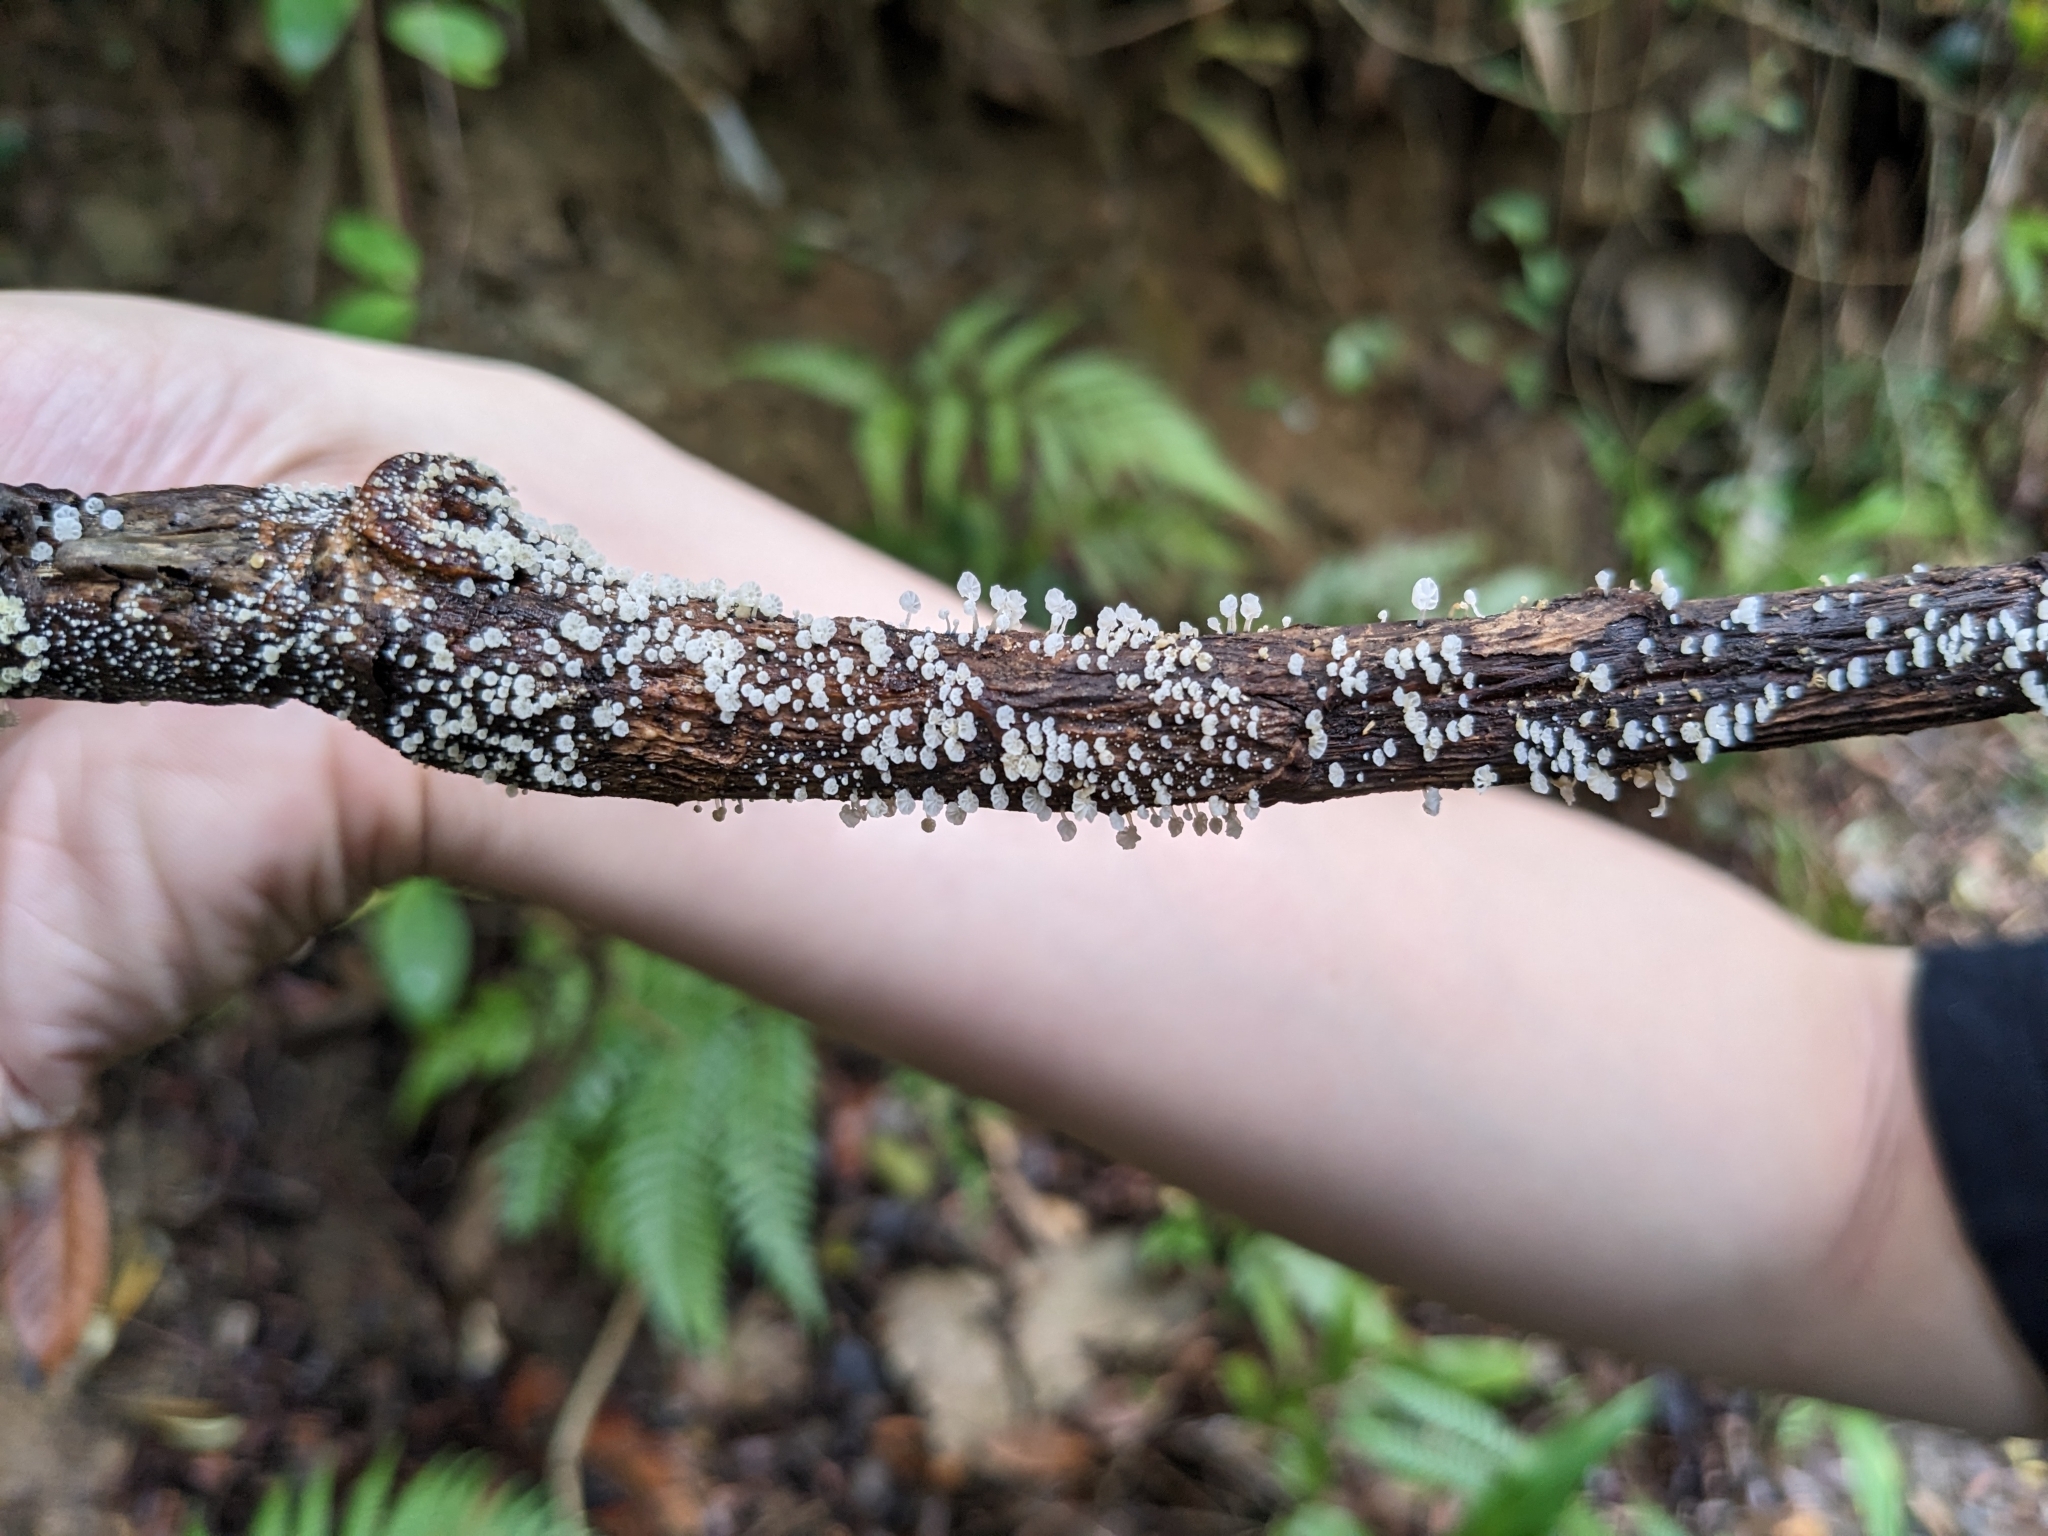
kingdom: Fungi
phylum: Basidiomycota
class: Agaricomycetes
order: Agaricales
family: Mycenaceae
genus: Mycena
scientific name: Mycena lazulina
